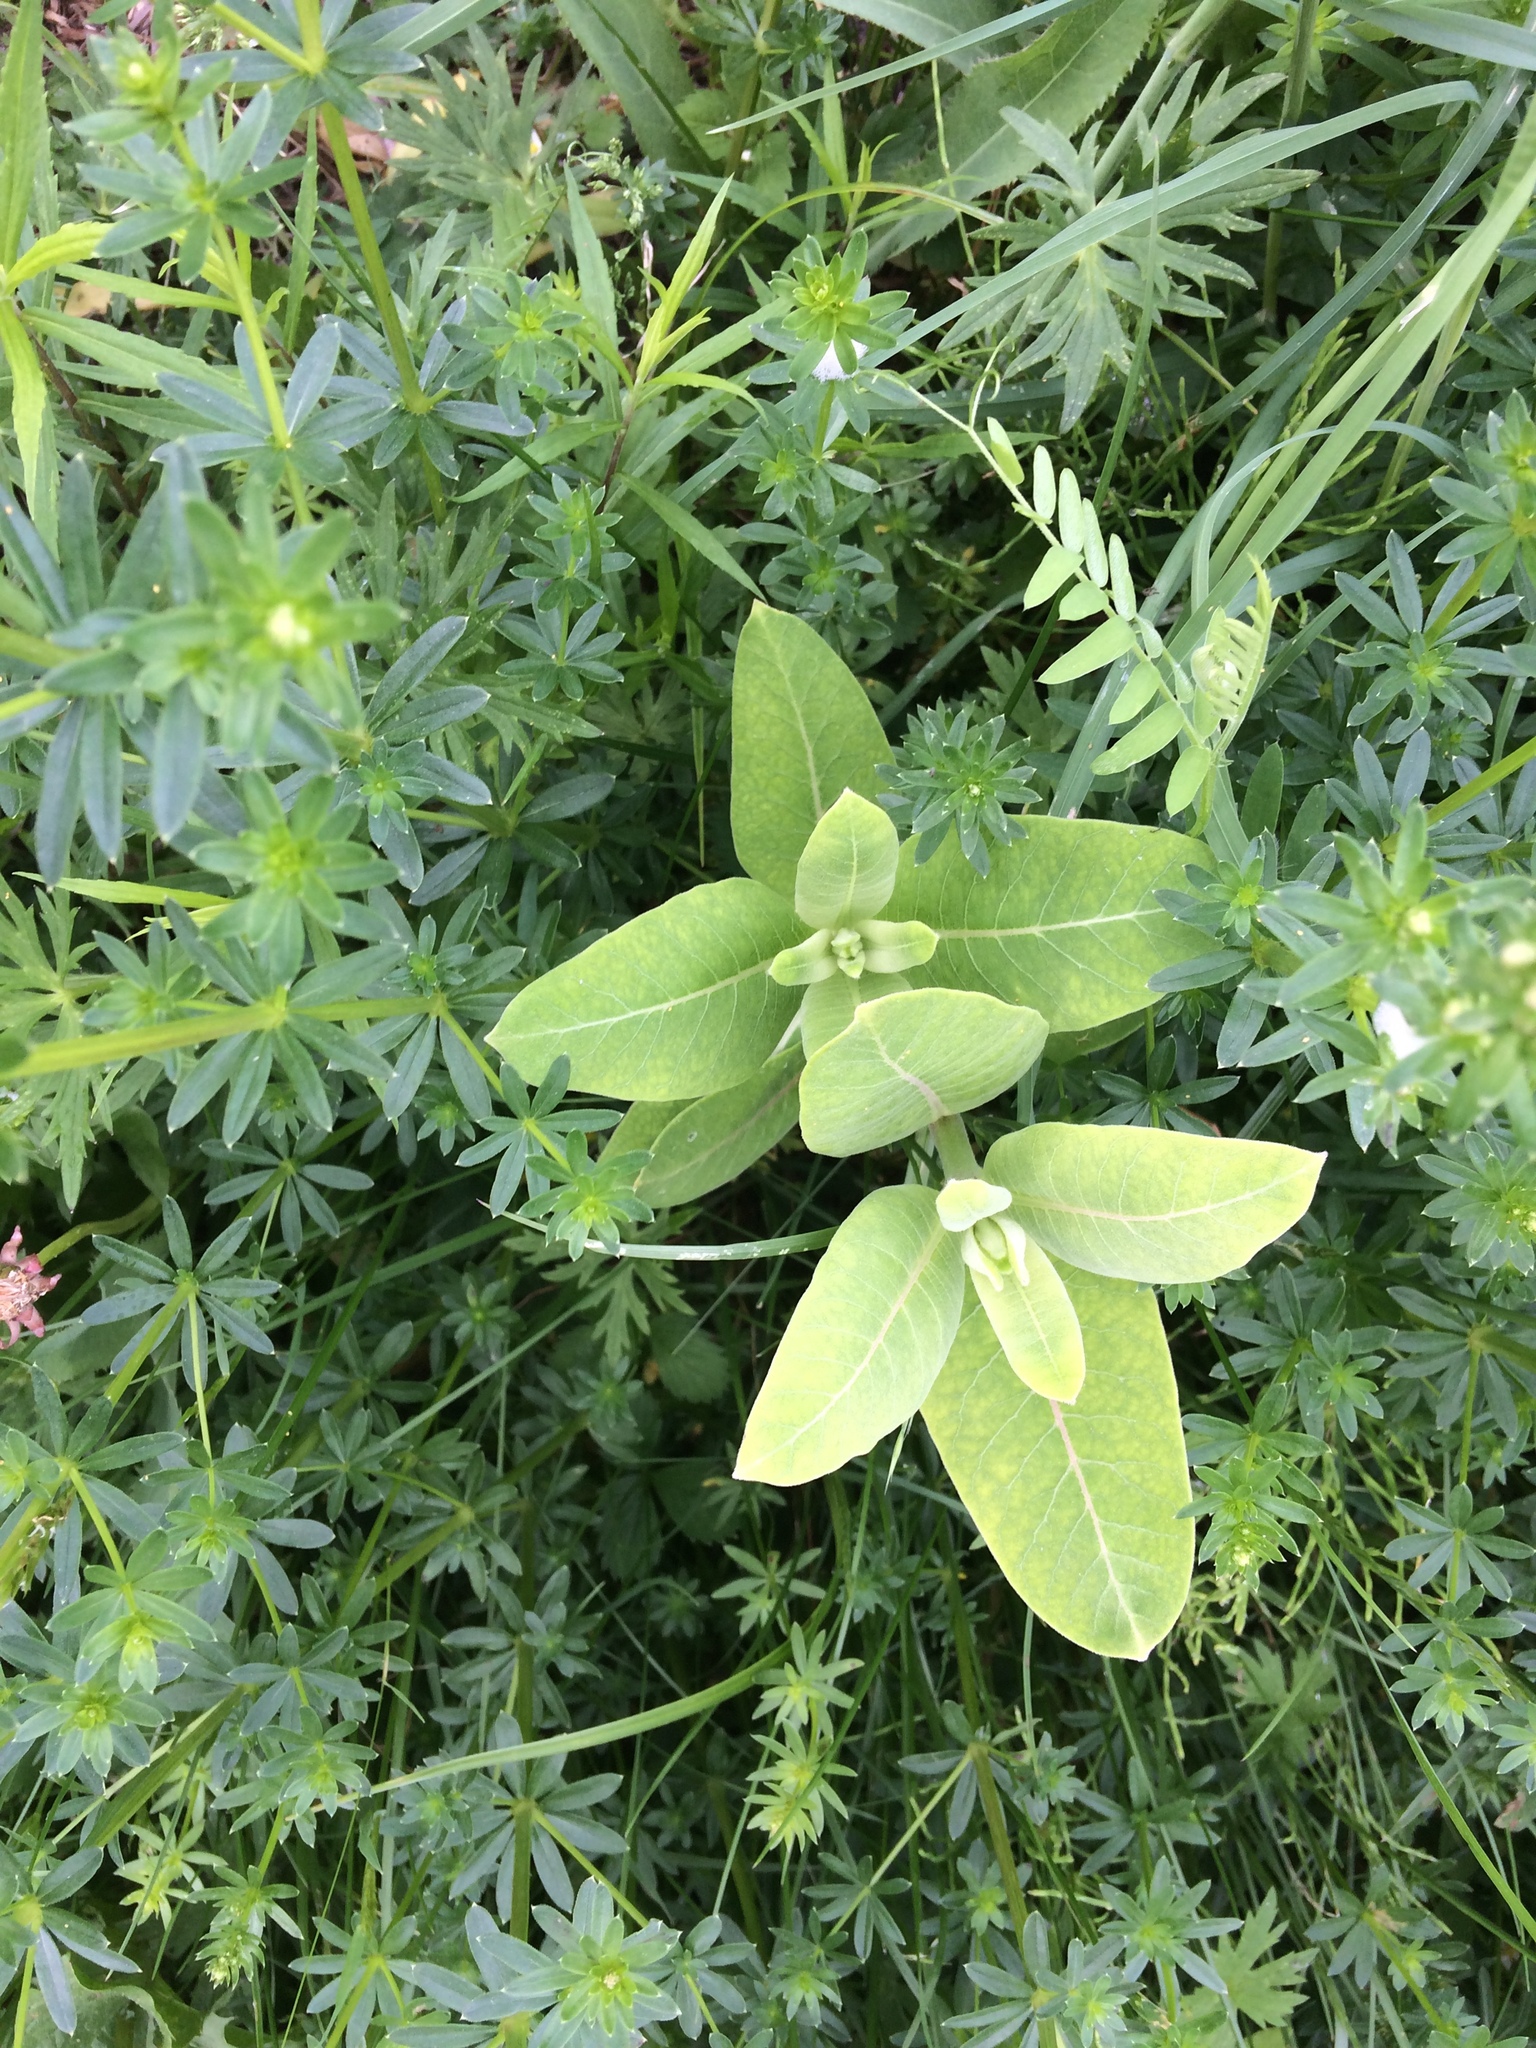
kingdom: Plantae
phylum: Tracheophyta
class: Magnoliopsida
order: Gentianales
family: Apocynaceae
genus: Asclepias
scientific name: Asclepias syriaca
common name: Common milkweed
